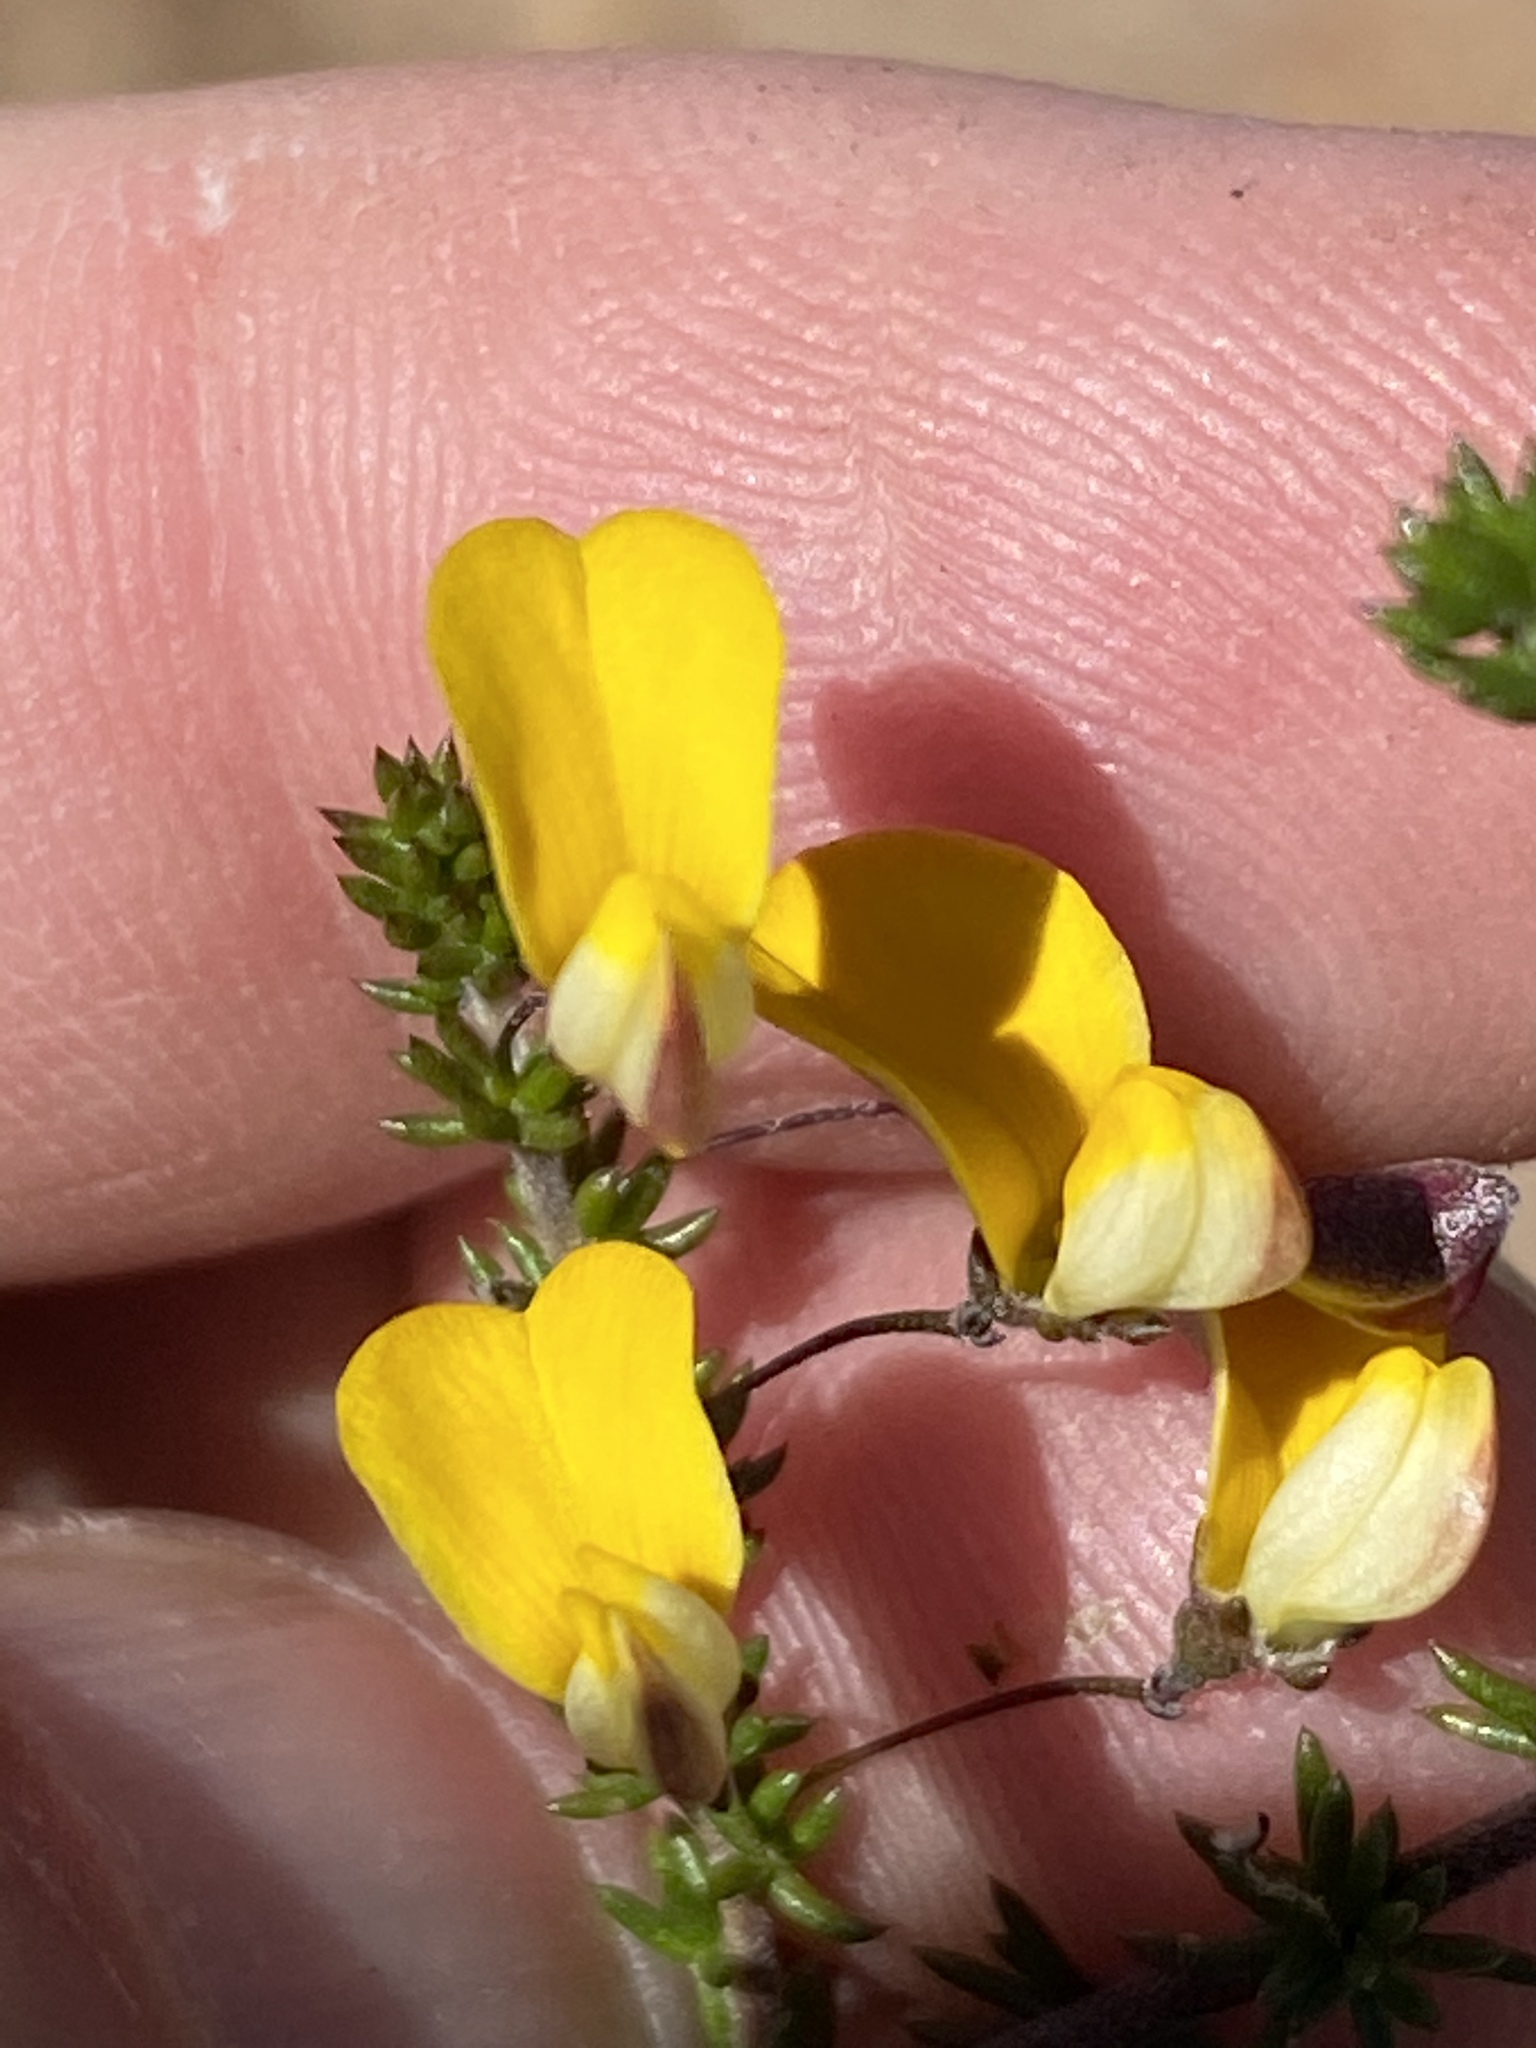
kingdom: Plantae
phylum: Tracheophyta
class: Magnoliopsida
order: Fabales
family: Fabaceae
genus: Aspalathus
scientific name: Aspalathus tenuissima
